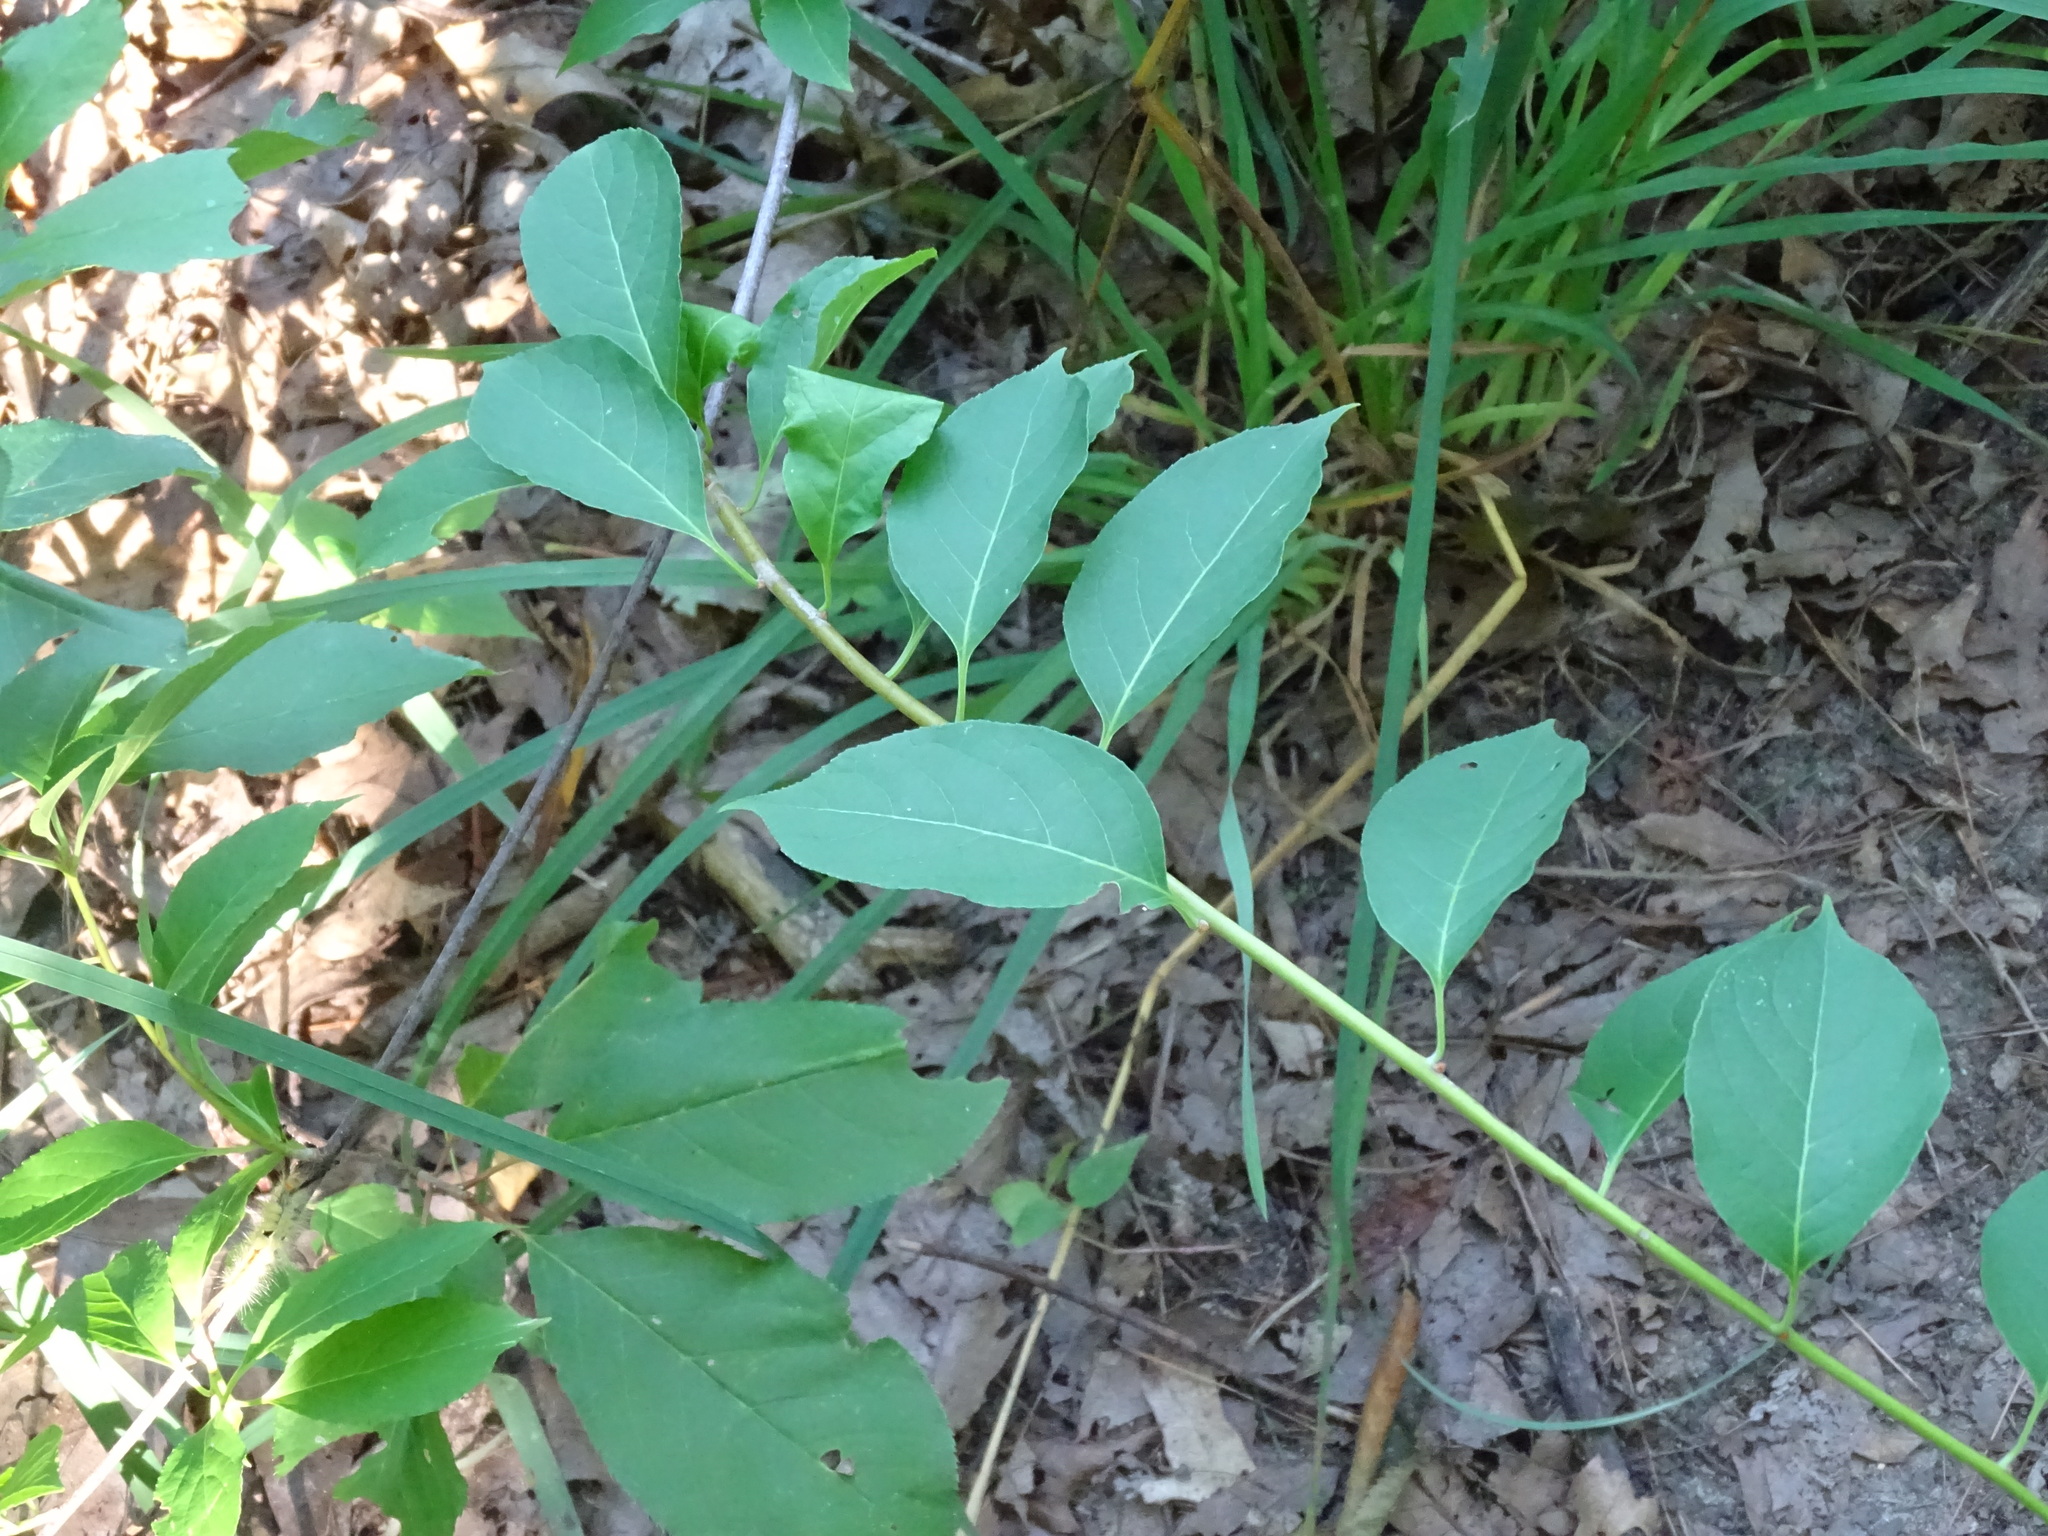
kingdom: Plantae
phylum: Tracheophyta
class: Magnoliopsida
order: Celastrales
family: Celastraceae
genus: Celastrus
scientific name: Celastrus scandens
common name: American bittersweet
